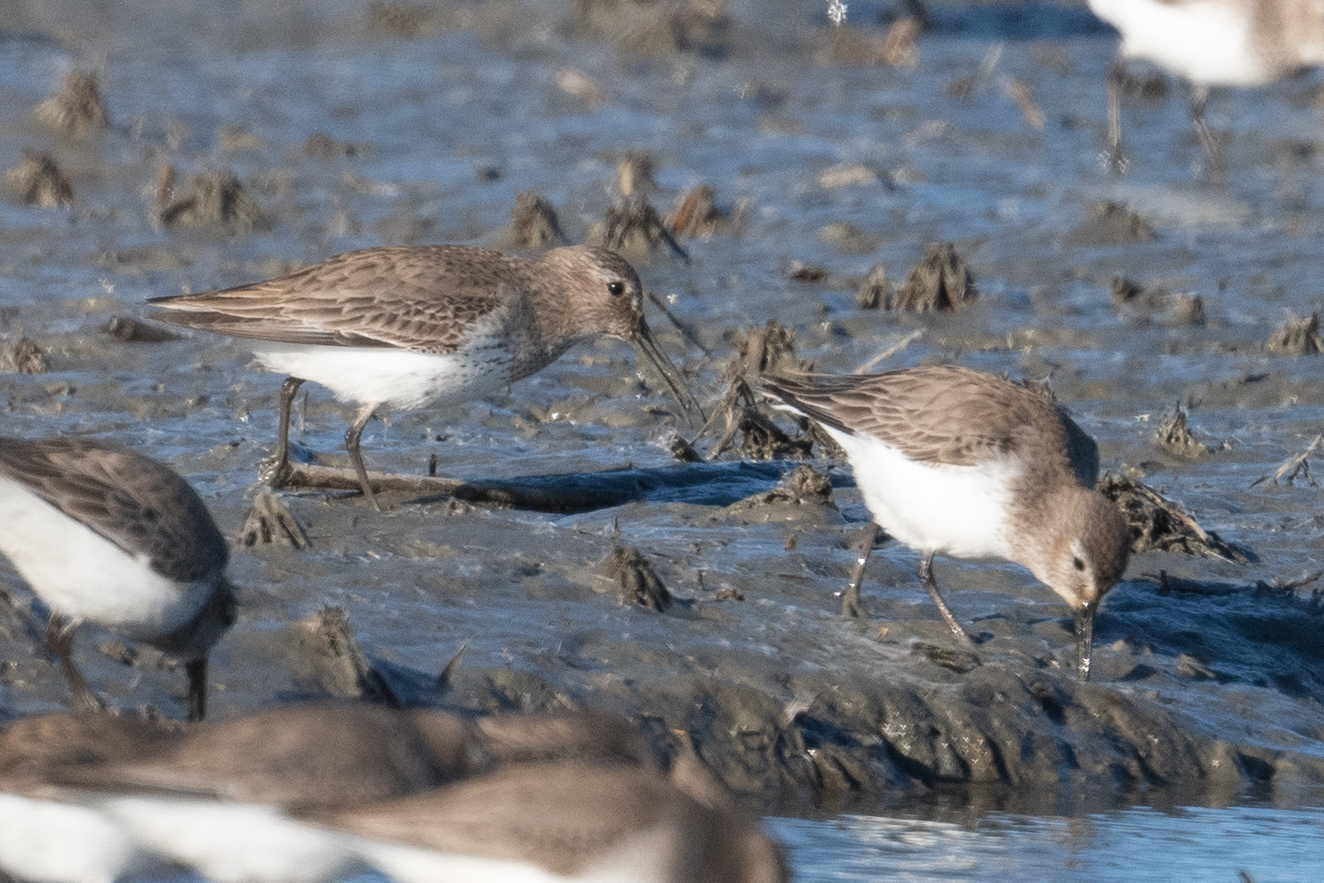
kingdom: Animalia
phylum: Chordata
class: Aves
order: Charadriiformes
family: Scolopacidae
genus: Calidris
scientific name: Calidris alpina
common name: Dunlin
